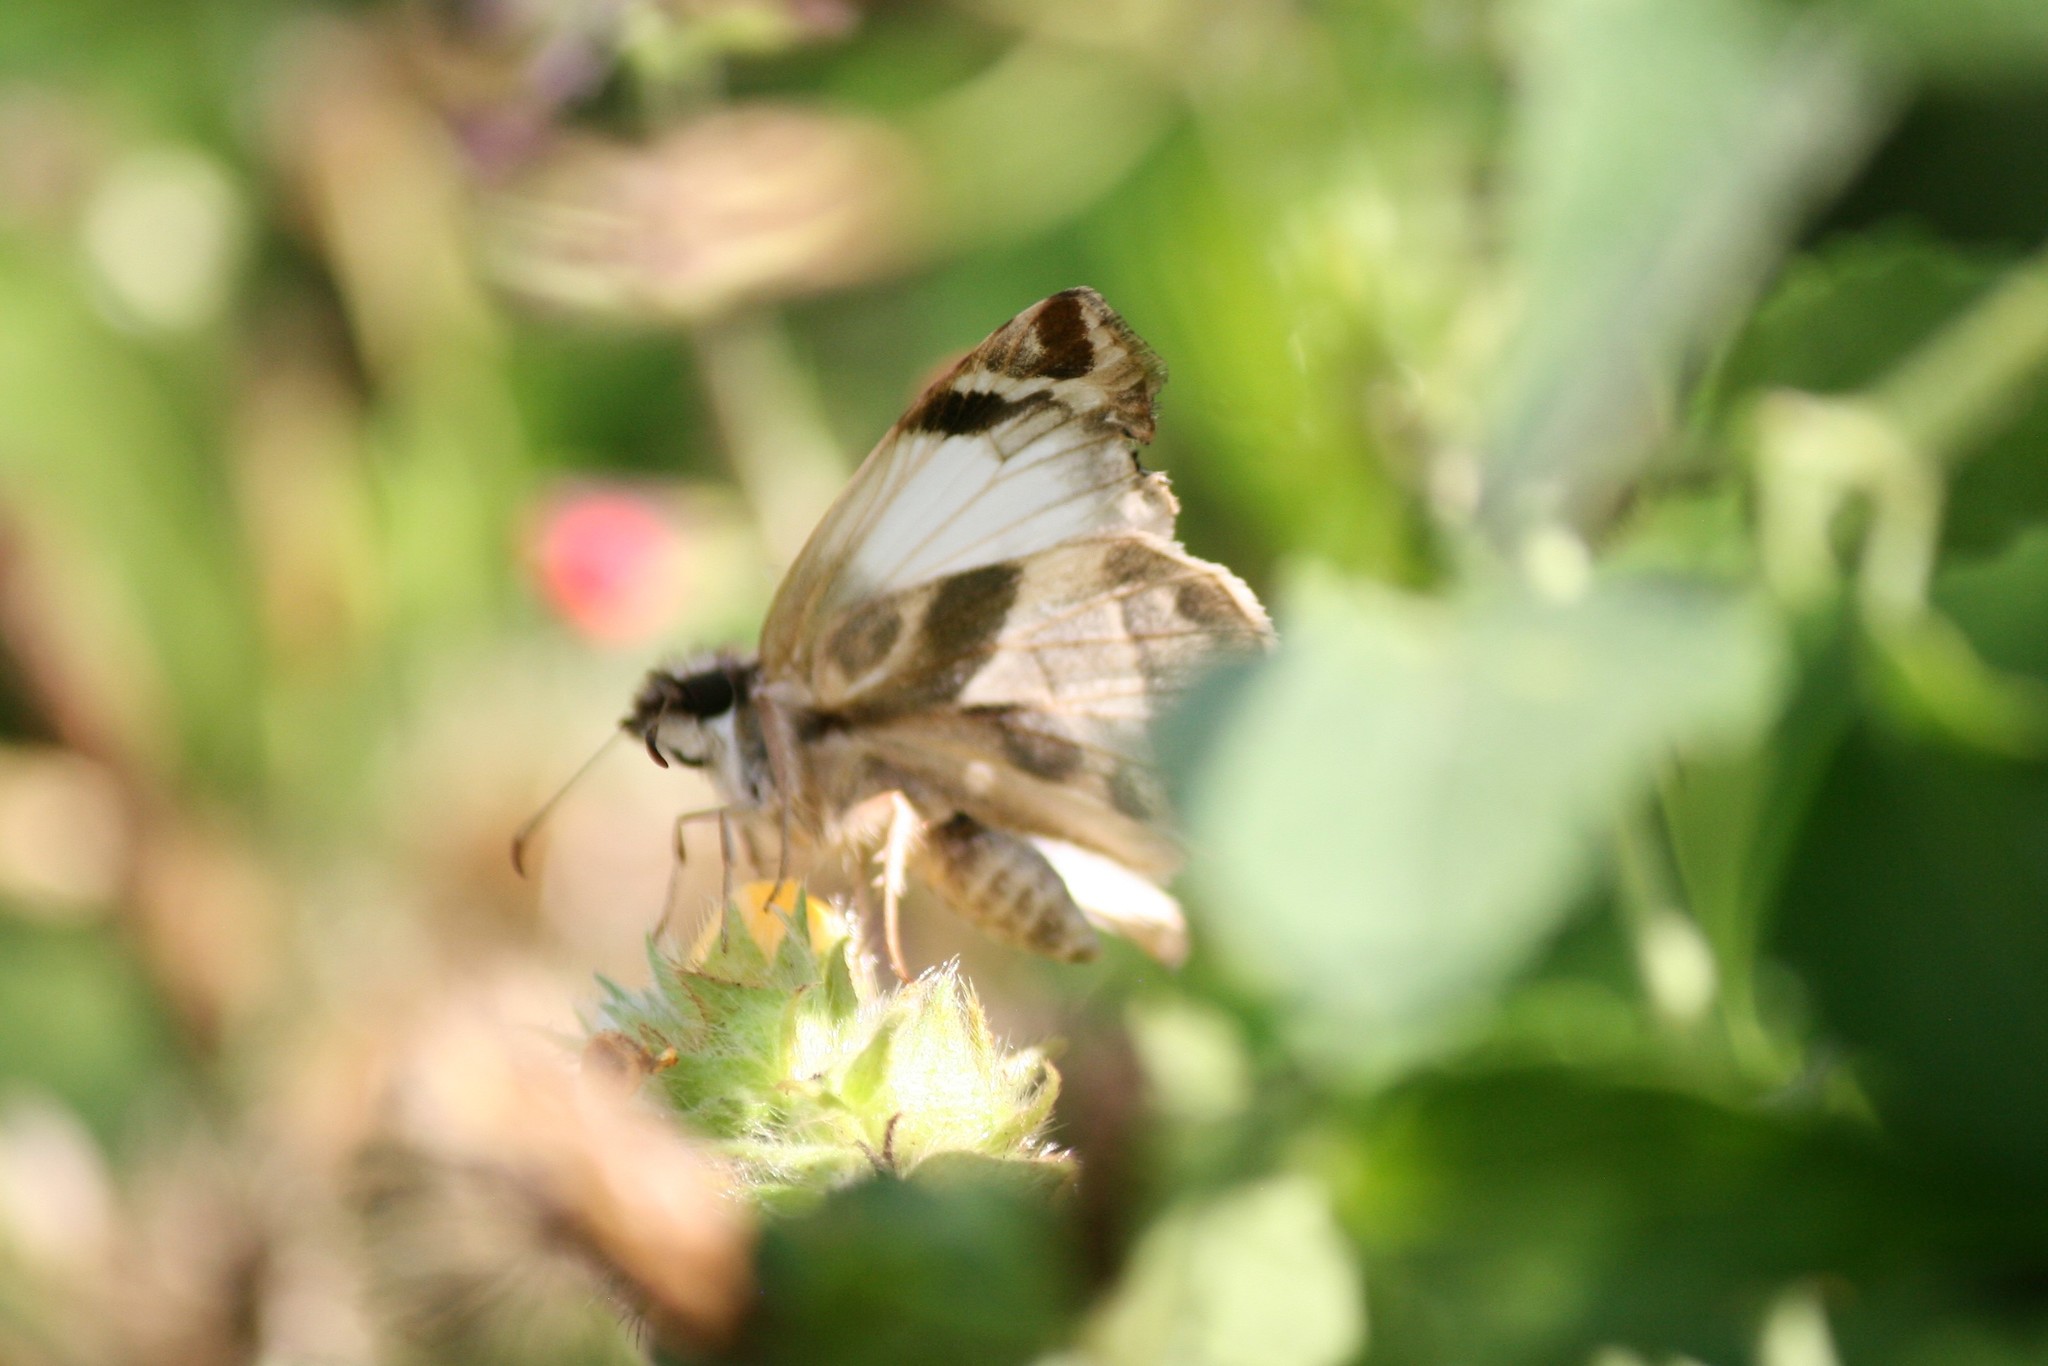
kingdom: Animalia
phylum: Arthropoda
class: Insecta
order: Lepidoptera
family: Hesperiidae
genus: Heliopetes
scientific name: Heliopetes laviana
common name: Laviana white-skipper
